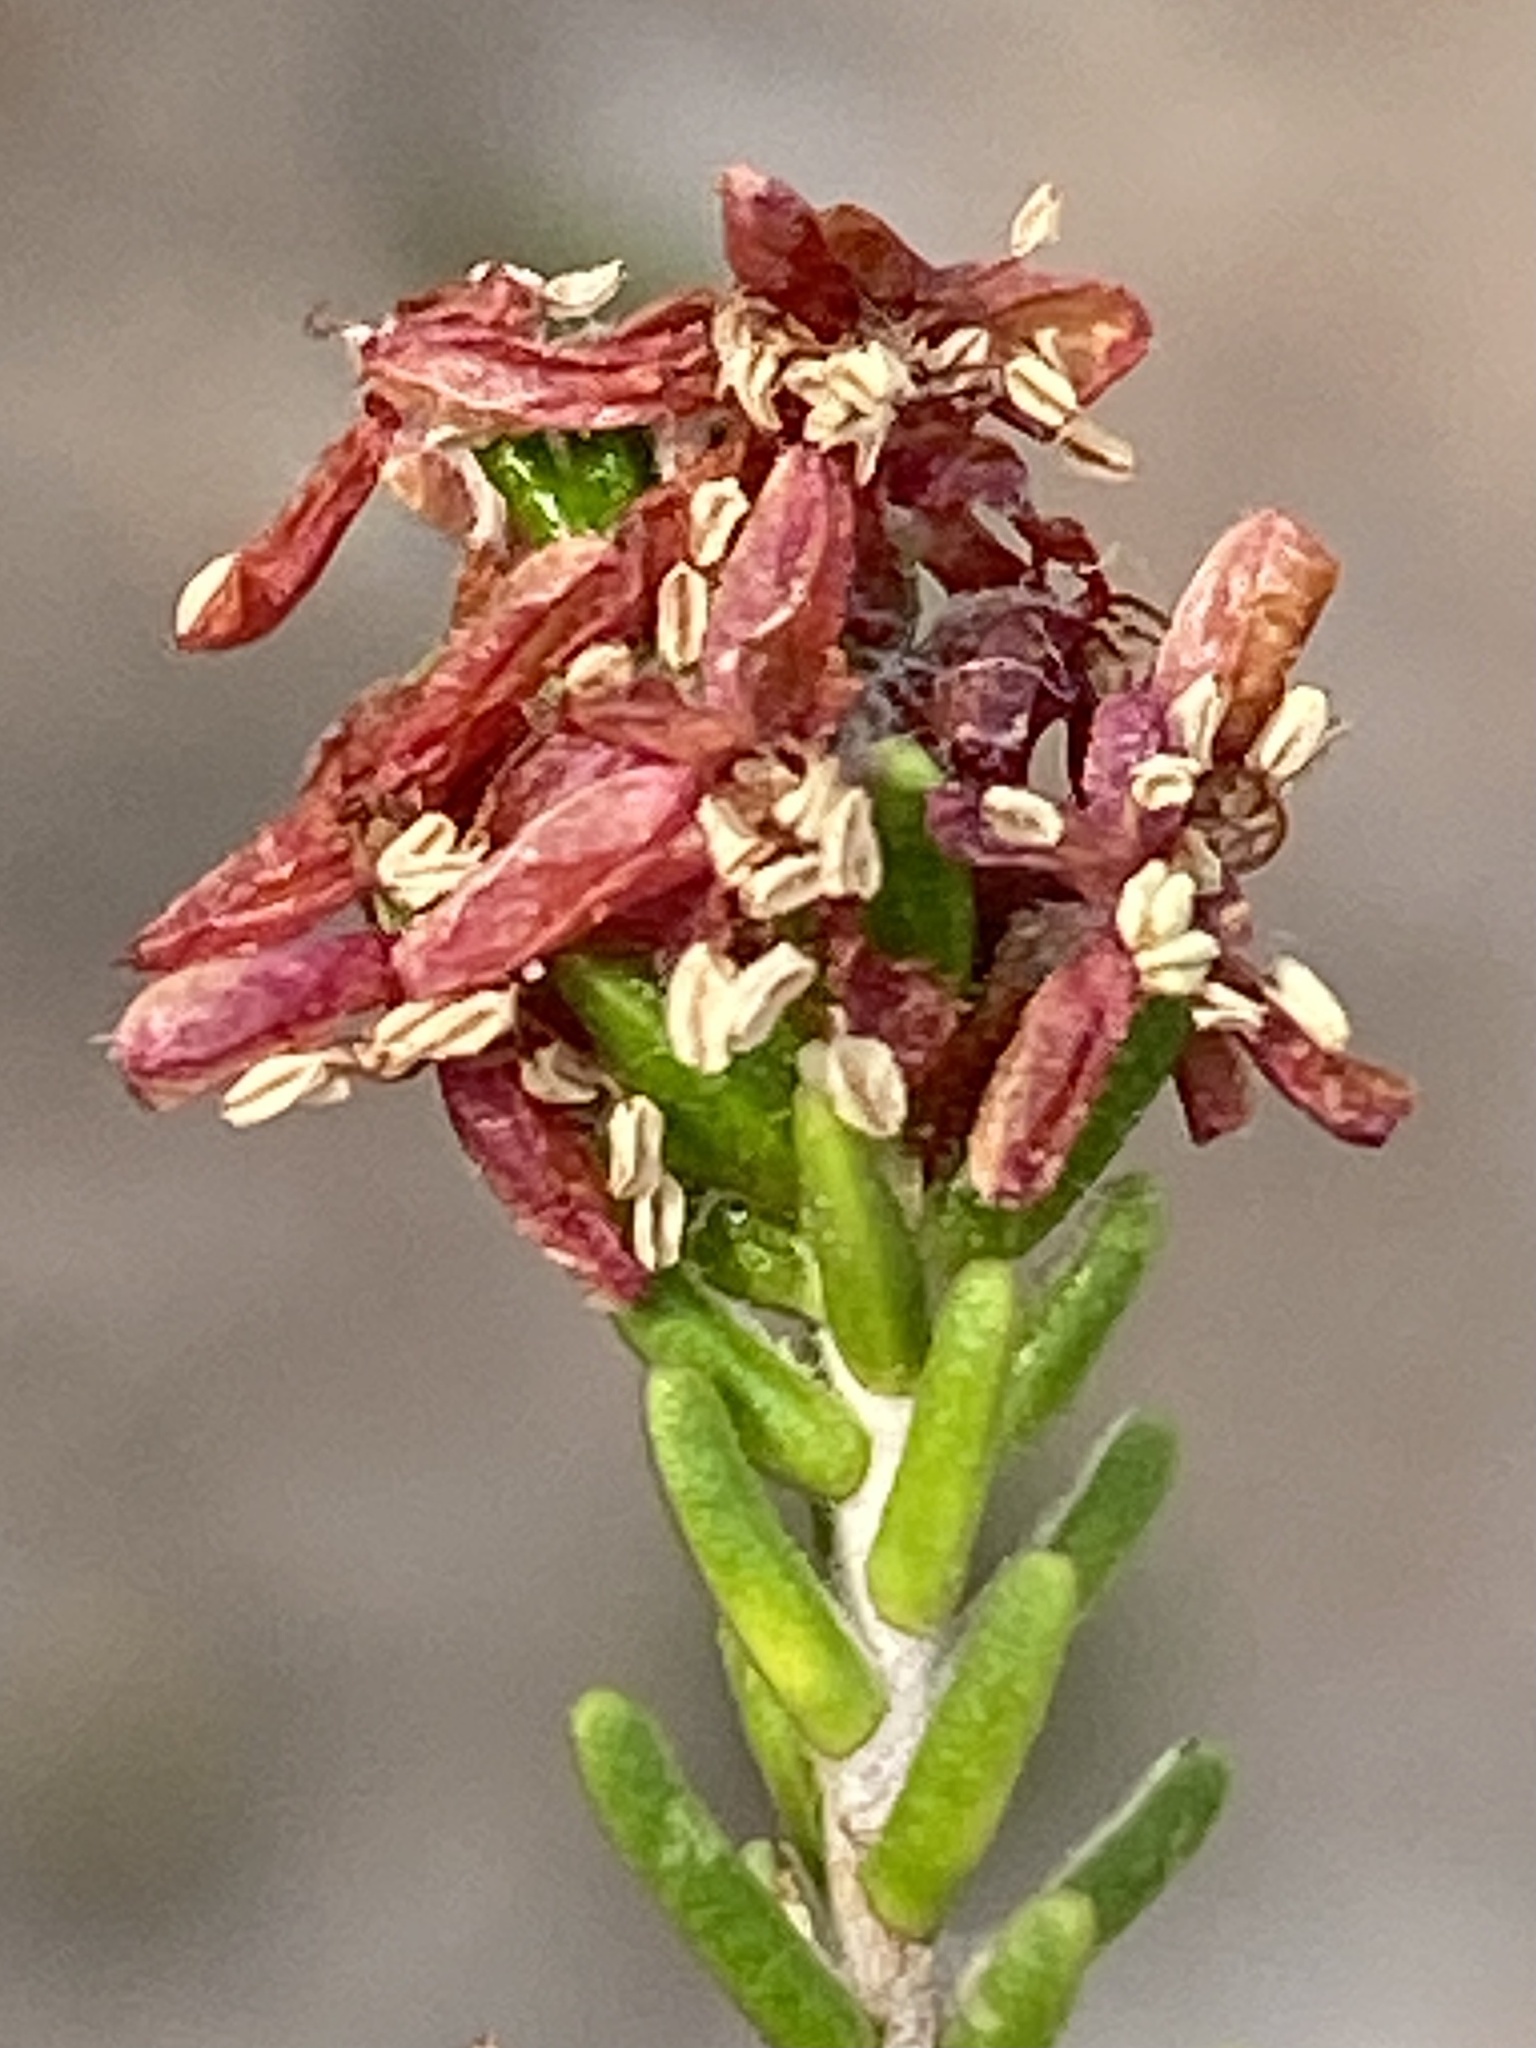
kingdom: Plantae
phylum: Tracheophyta
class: Magnoliopsida
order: Malvales
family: Thymelaeaceae
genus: Passerina
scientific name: Passerina obtusifolia
